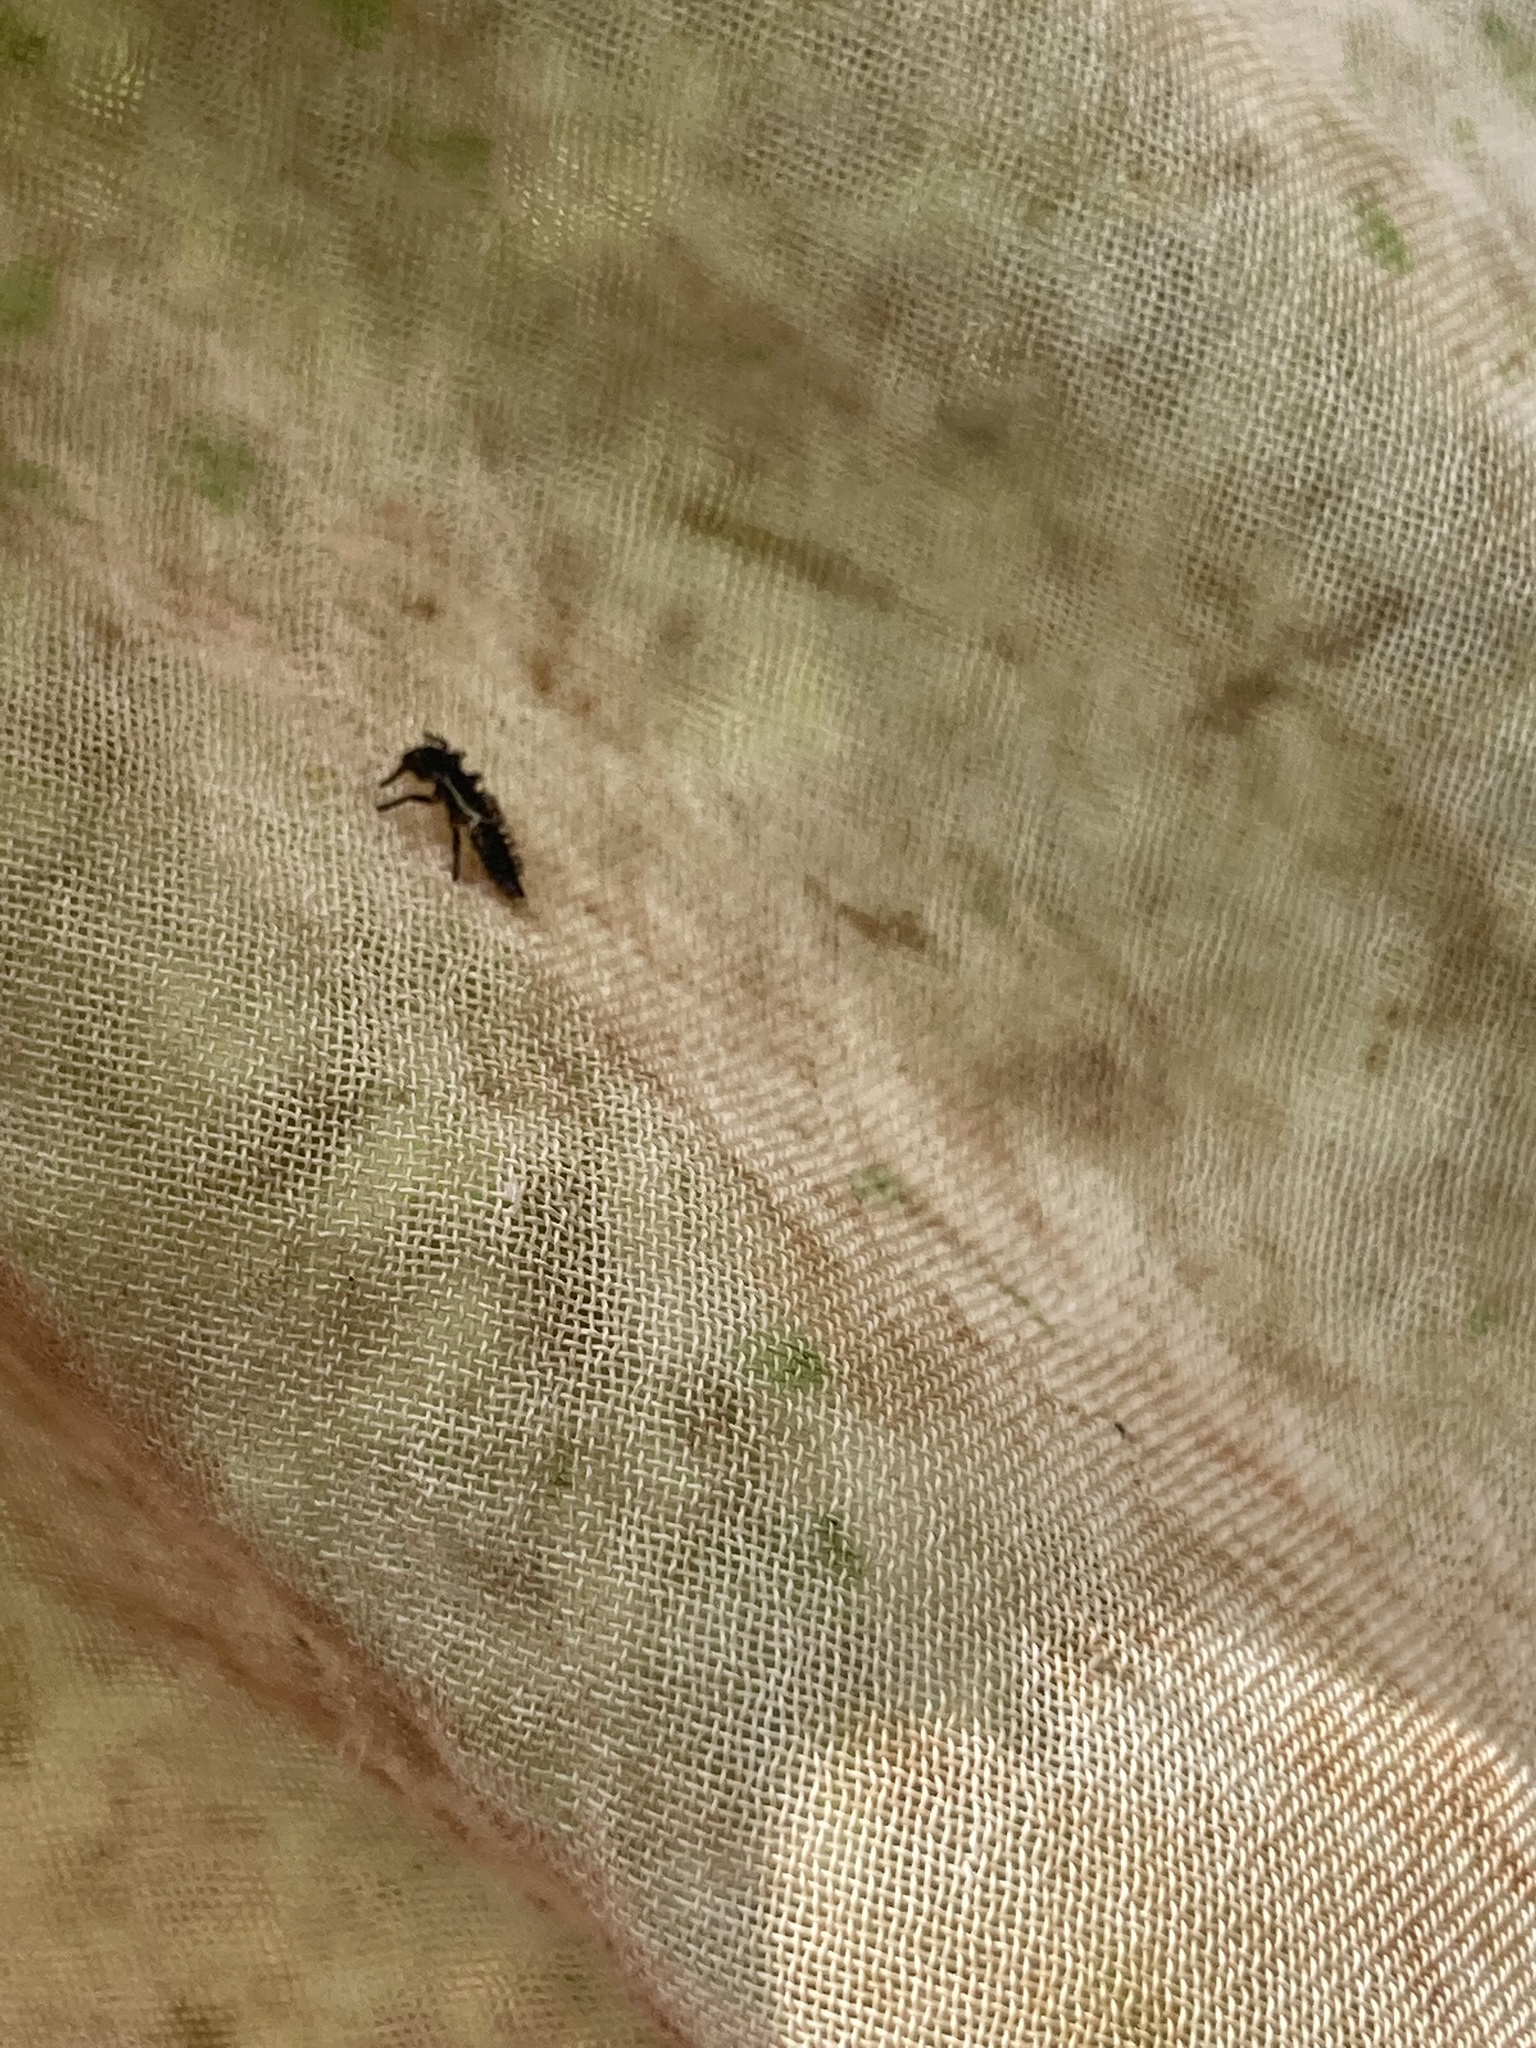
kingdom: Animalia
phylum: Arthropoda
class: Insecta
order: Coleoptera
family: Coccinellidae
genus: Harmonia
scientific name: Harmonia axyridis
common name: Harlequin ladybird
